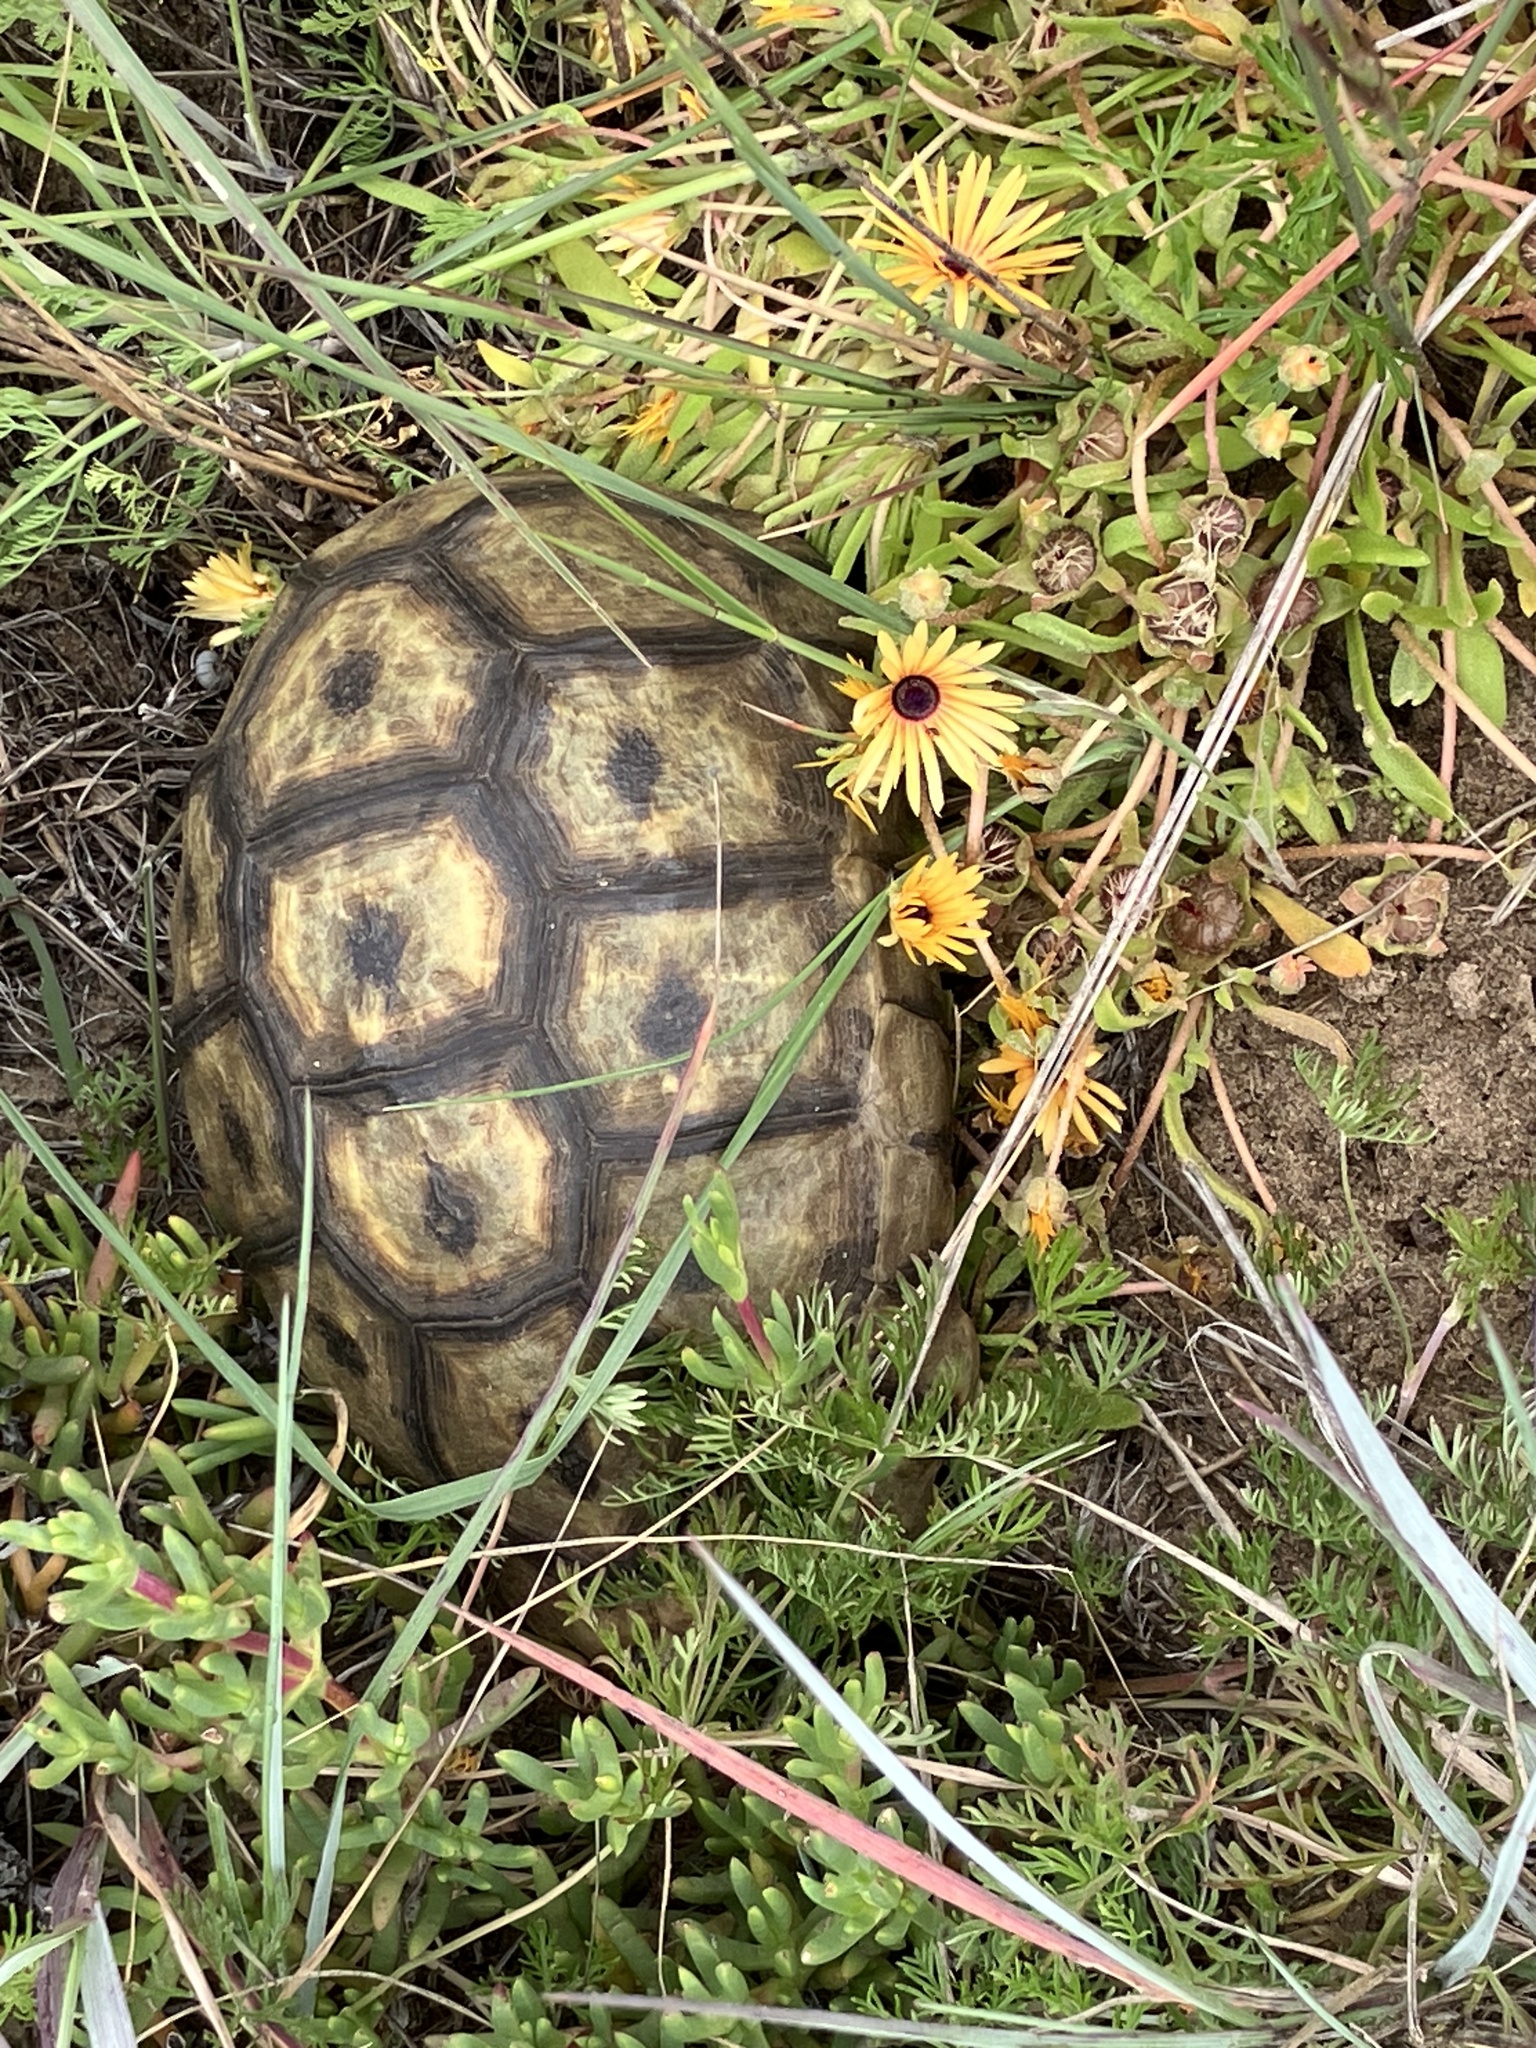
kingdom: Animalia
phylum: Chordata
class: Testudines
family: Testudinidae
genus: Chersina
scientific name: Chersina angulata
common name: South african bowsprit tortoise
